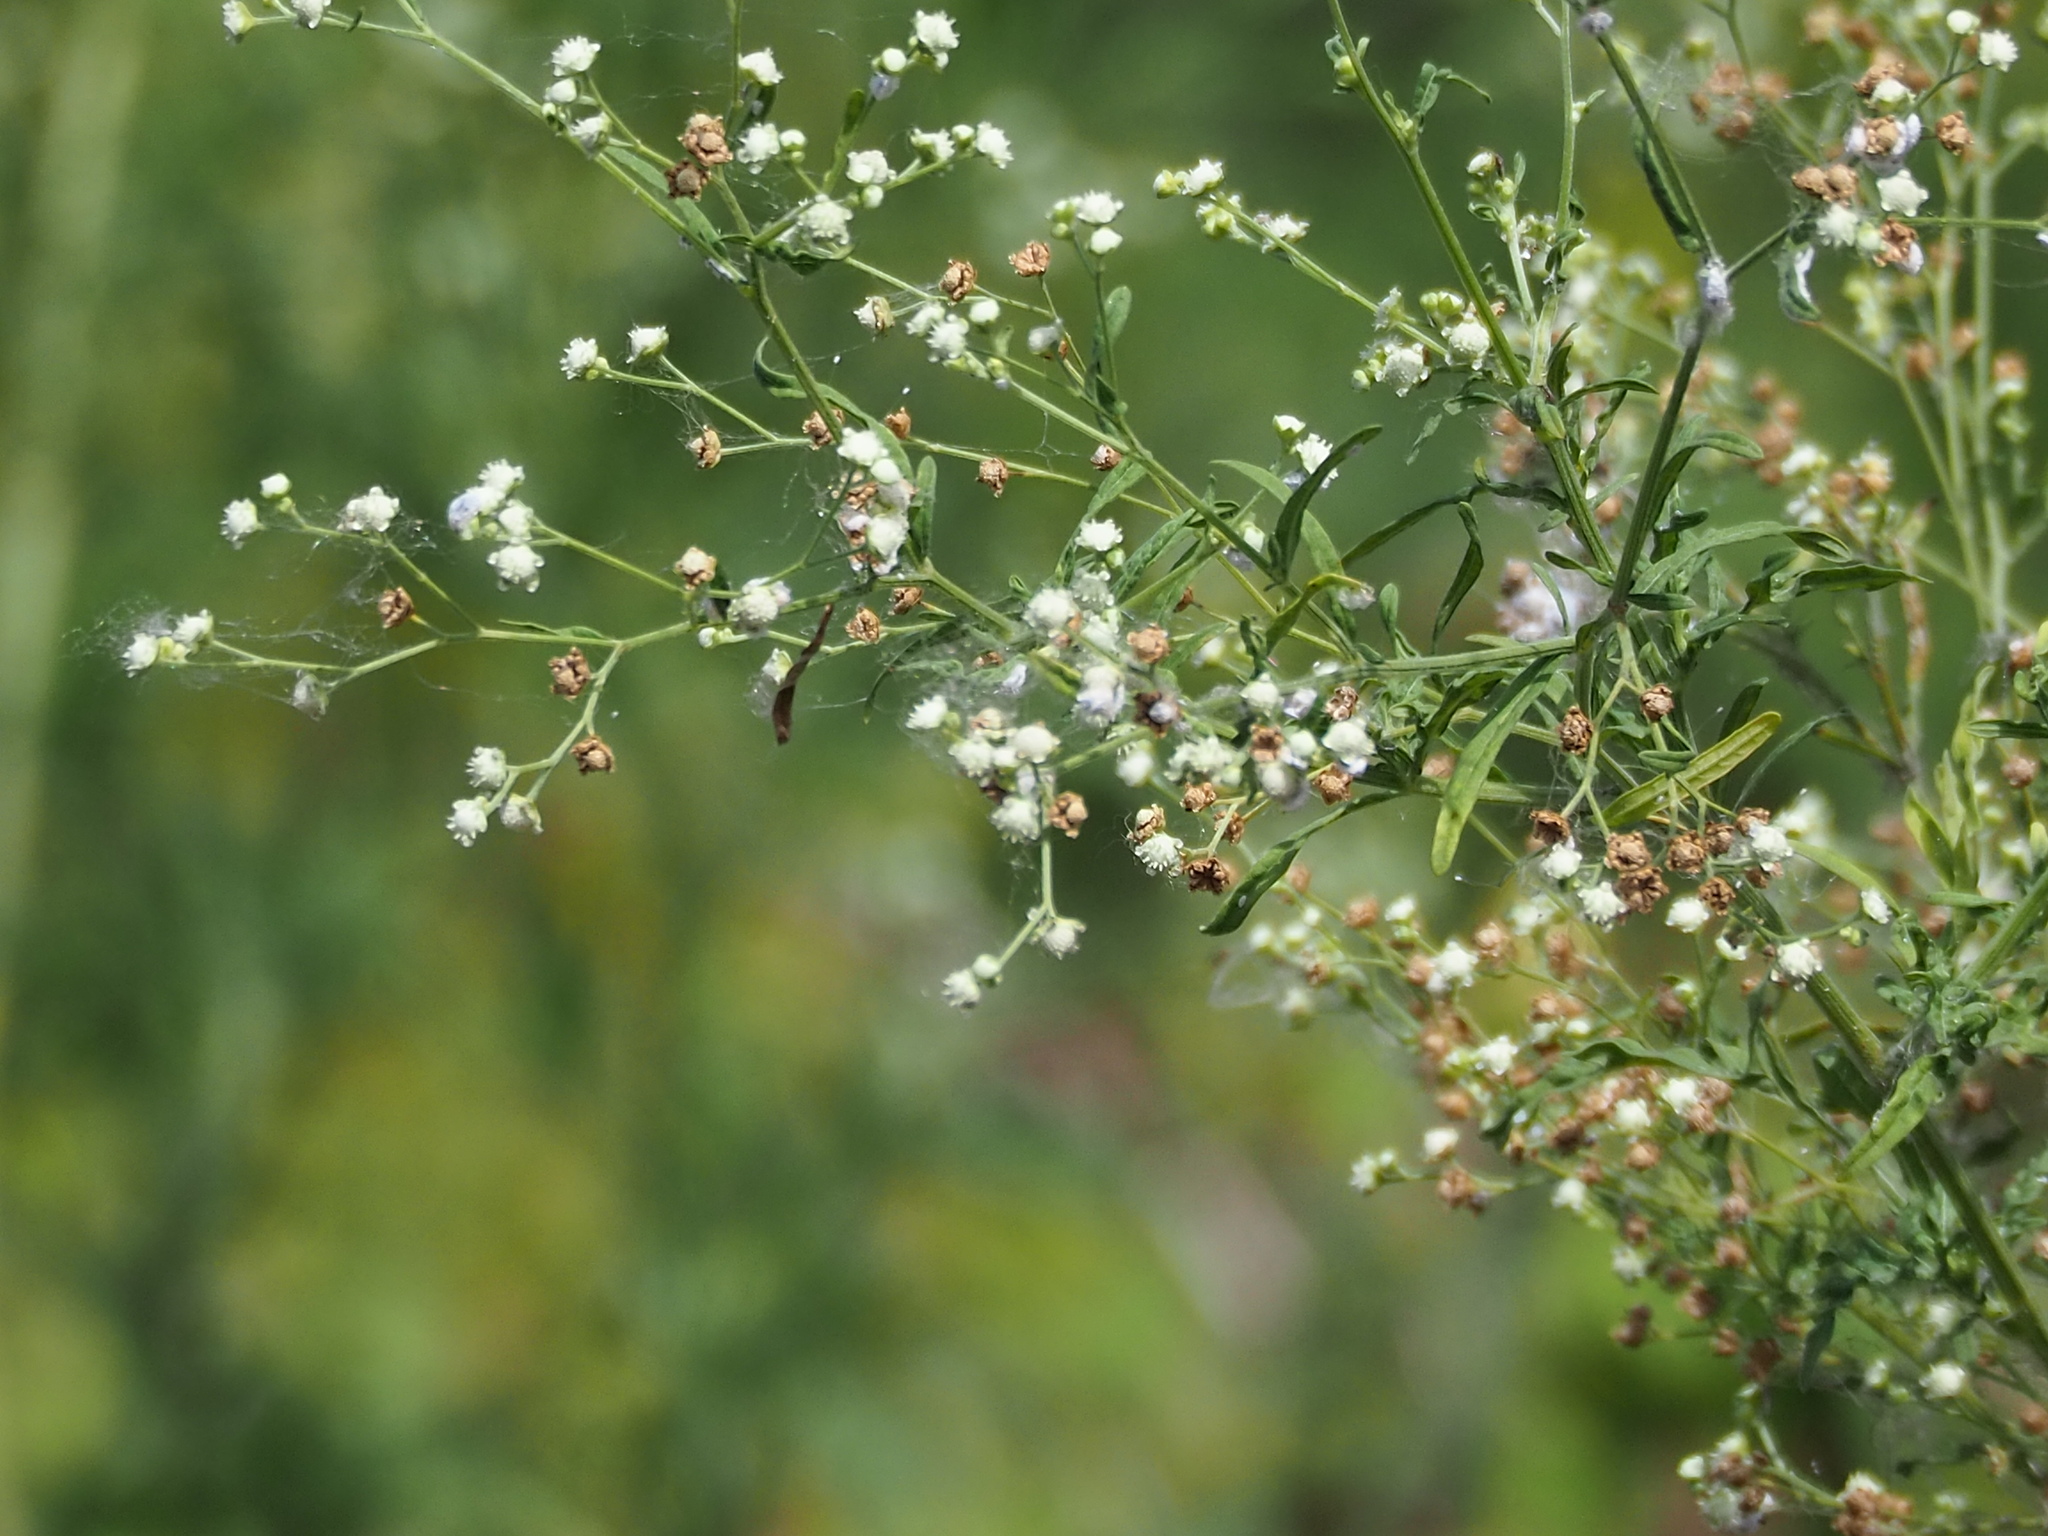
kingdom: Plantae
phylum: Tracheophyta
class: Magnoliopsida
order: Asterales
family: Asteraceae
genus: Parthenium
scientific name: Parthenium hysterophorus
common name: Santa maria feverfew
